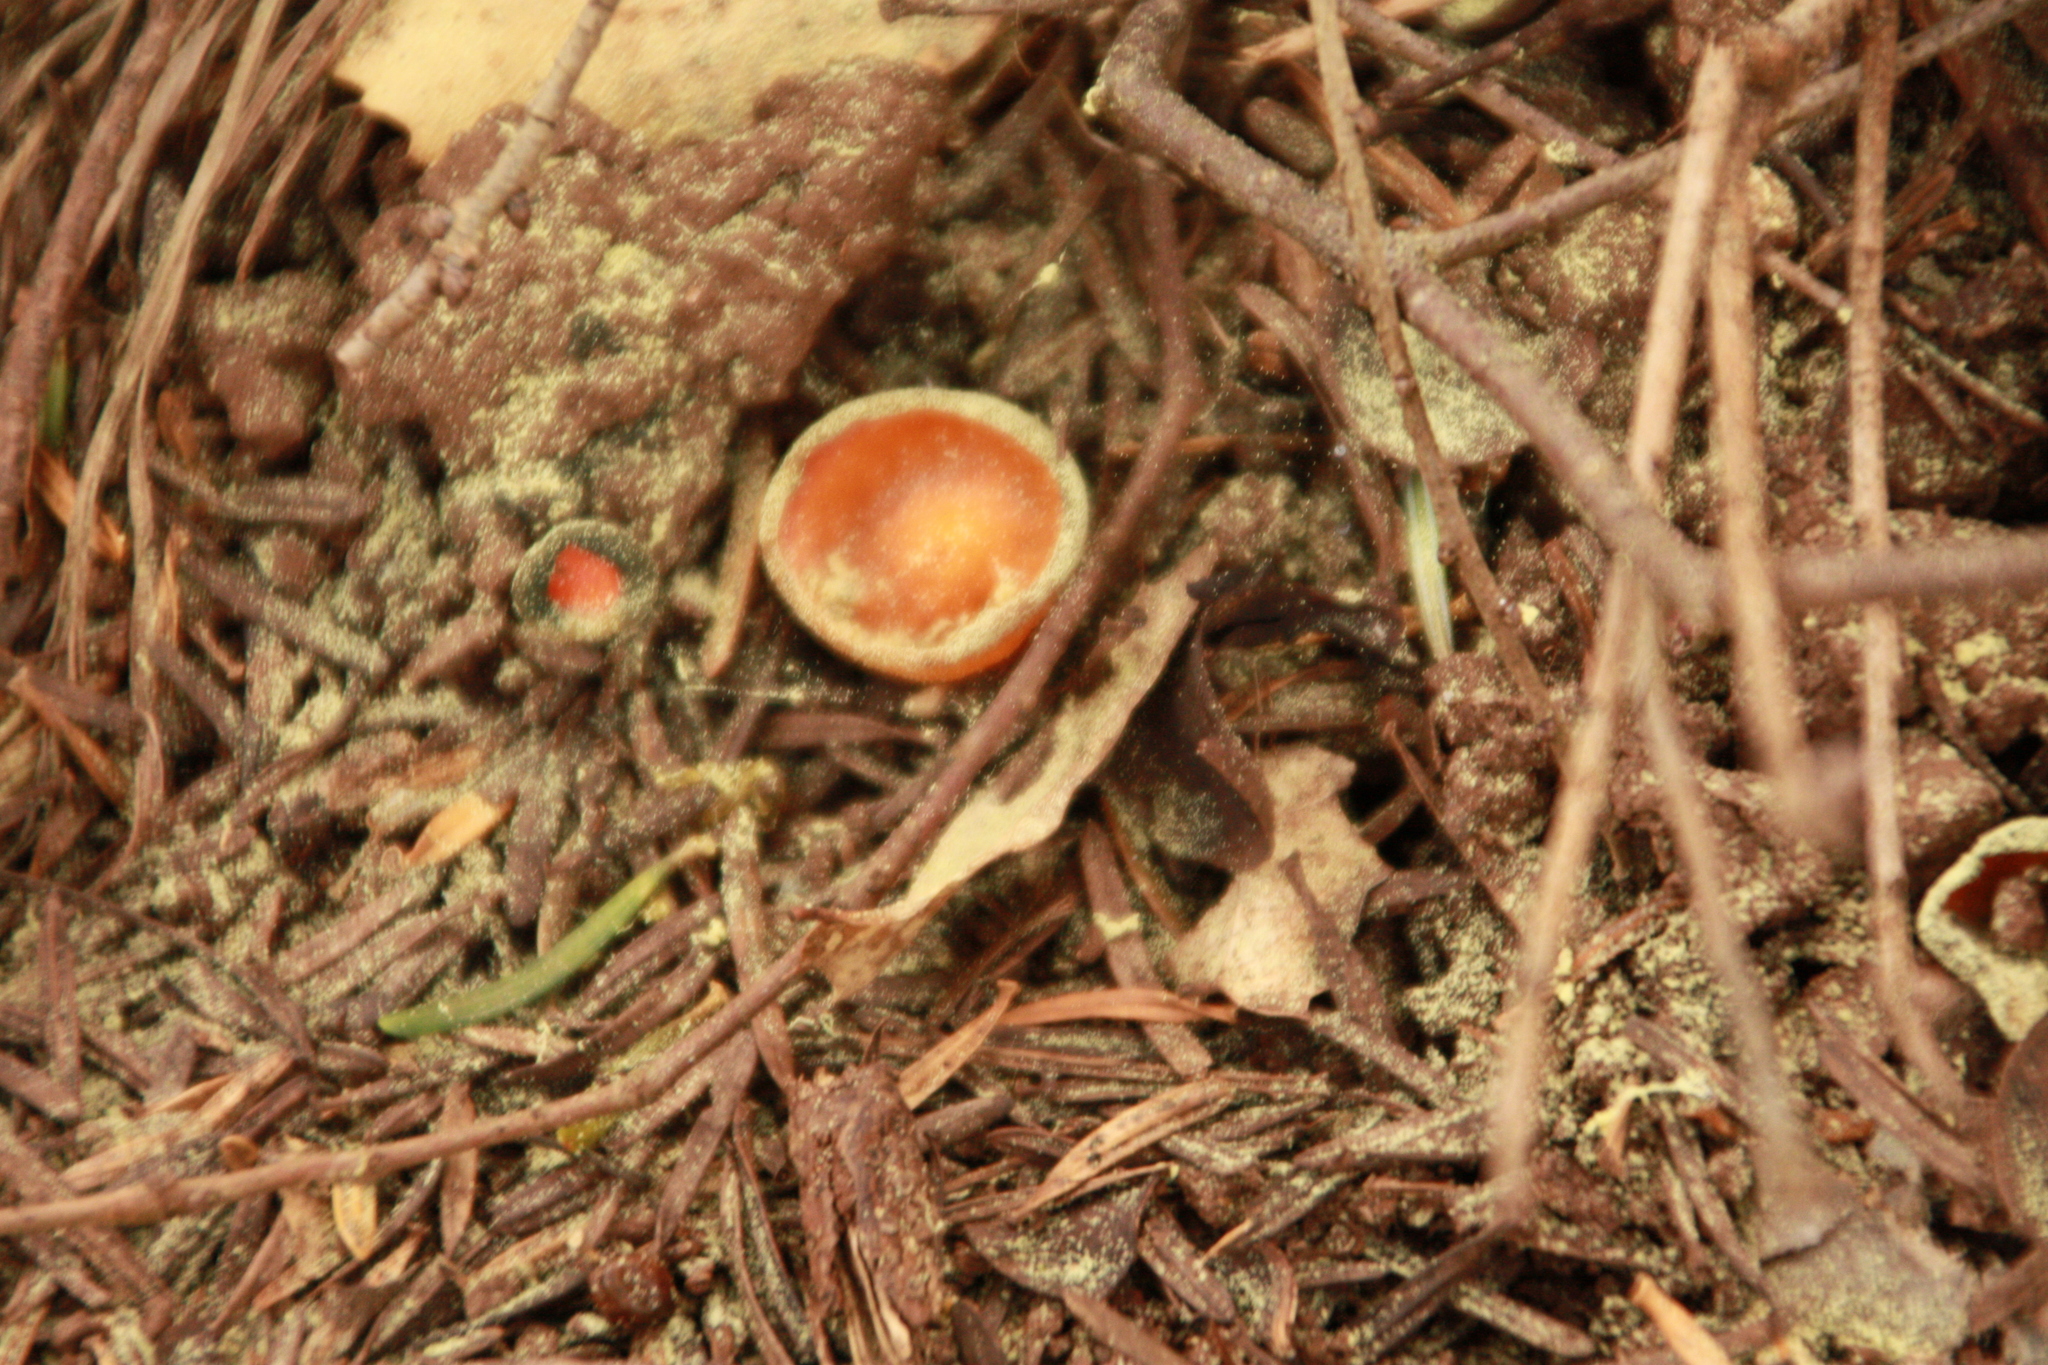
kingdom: Fungi
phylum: Ascomycota
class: Pezizomycetes
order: Pezizales
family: Caloscyphaceae
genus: Caloscypha
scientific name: Caloscypha fulgens
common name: Golden cup
